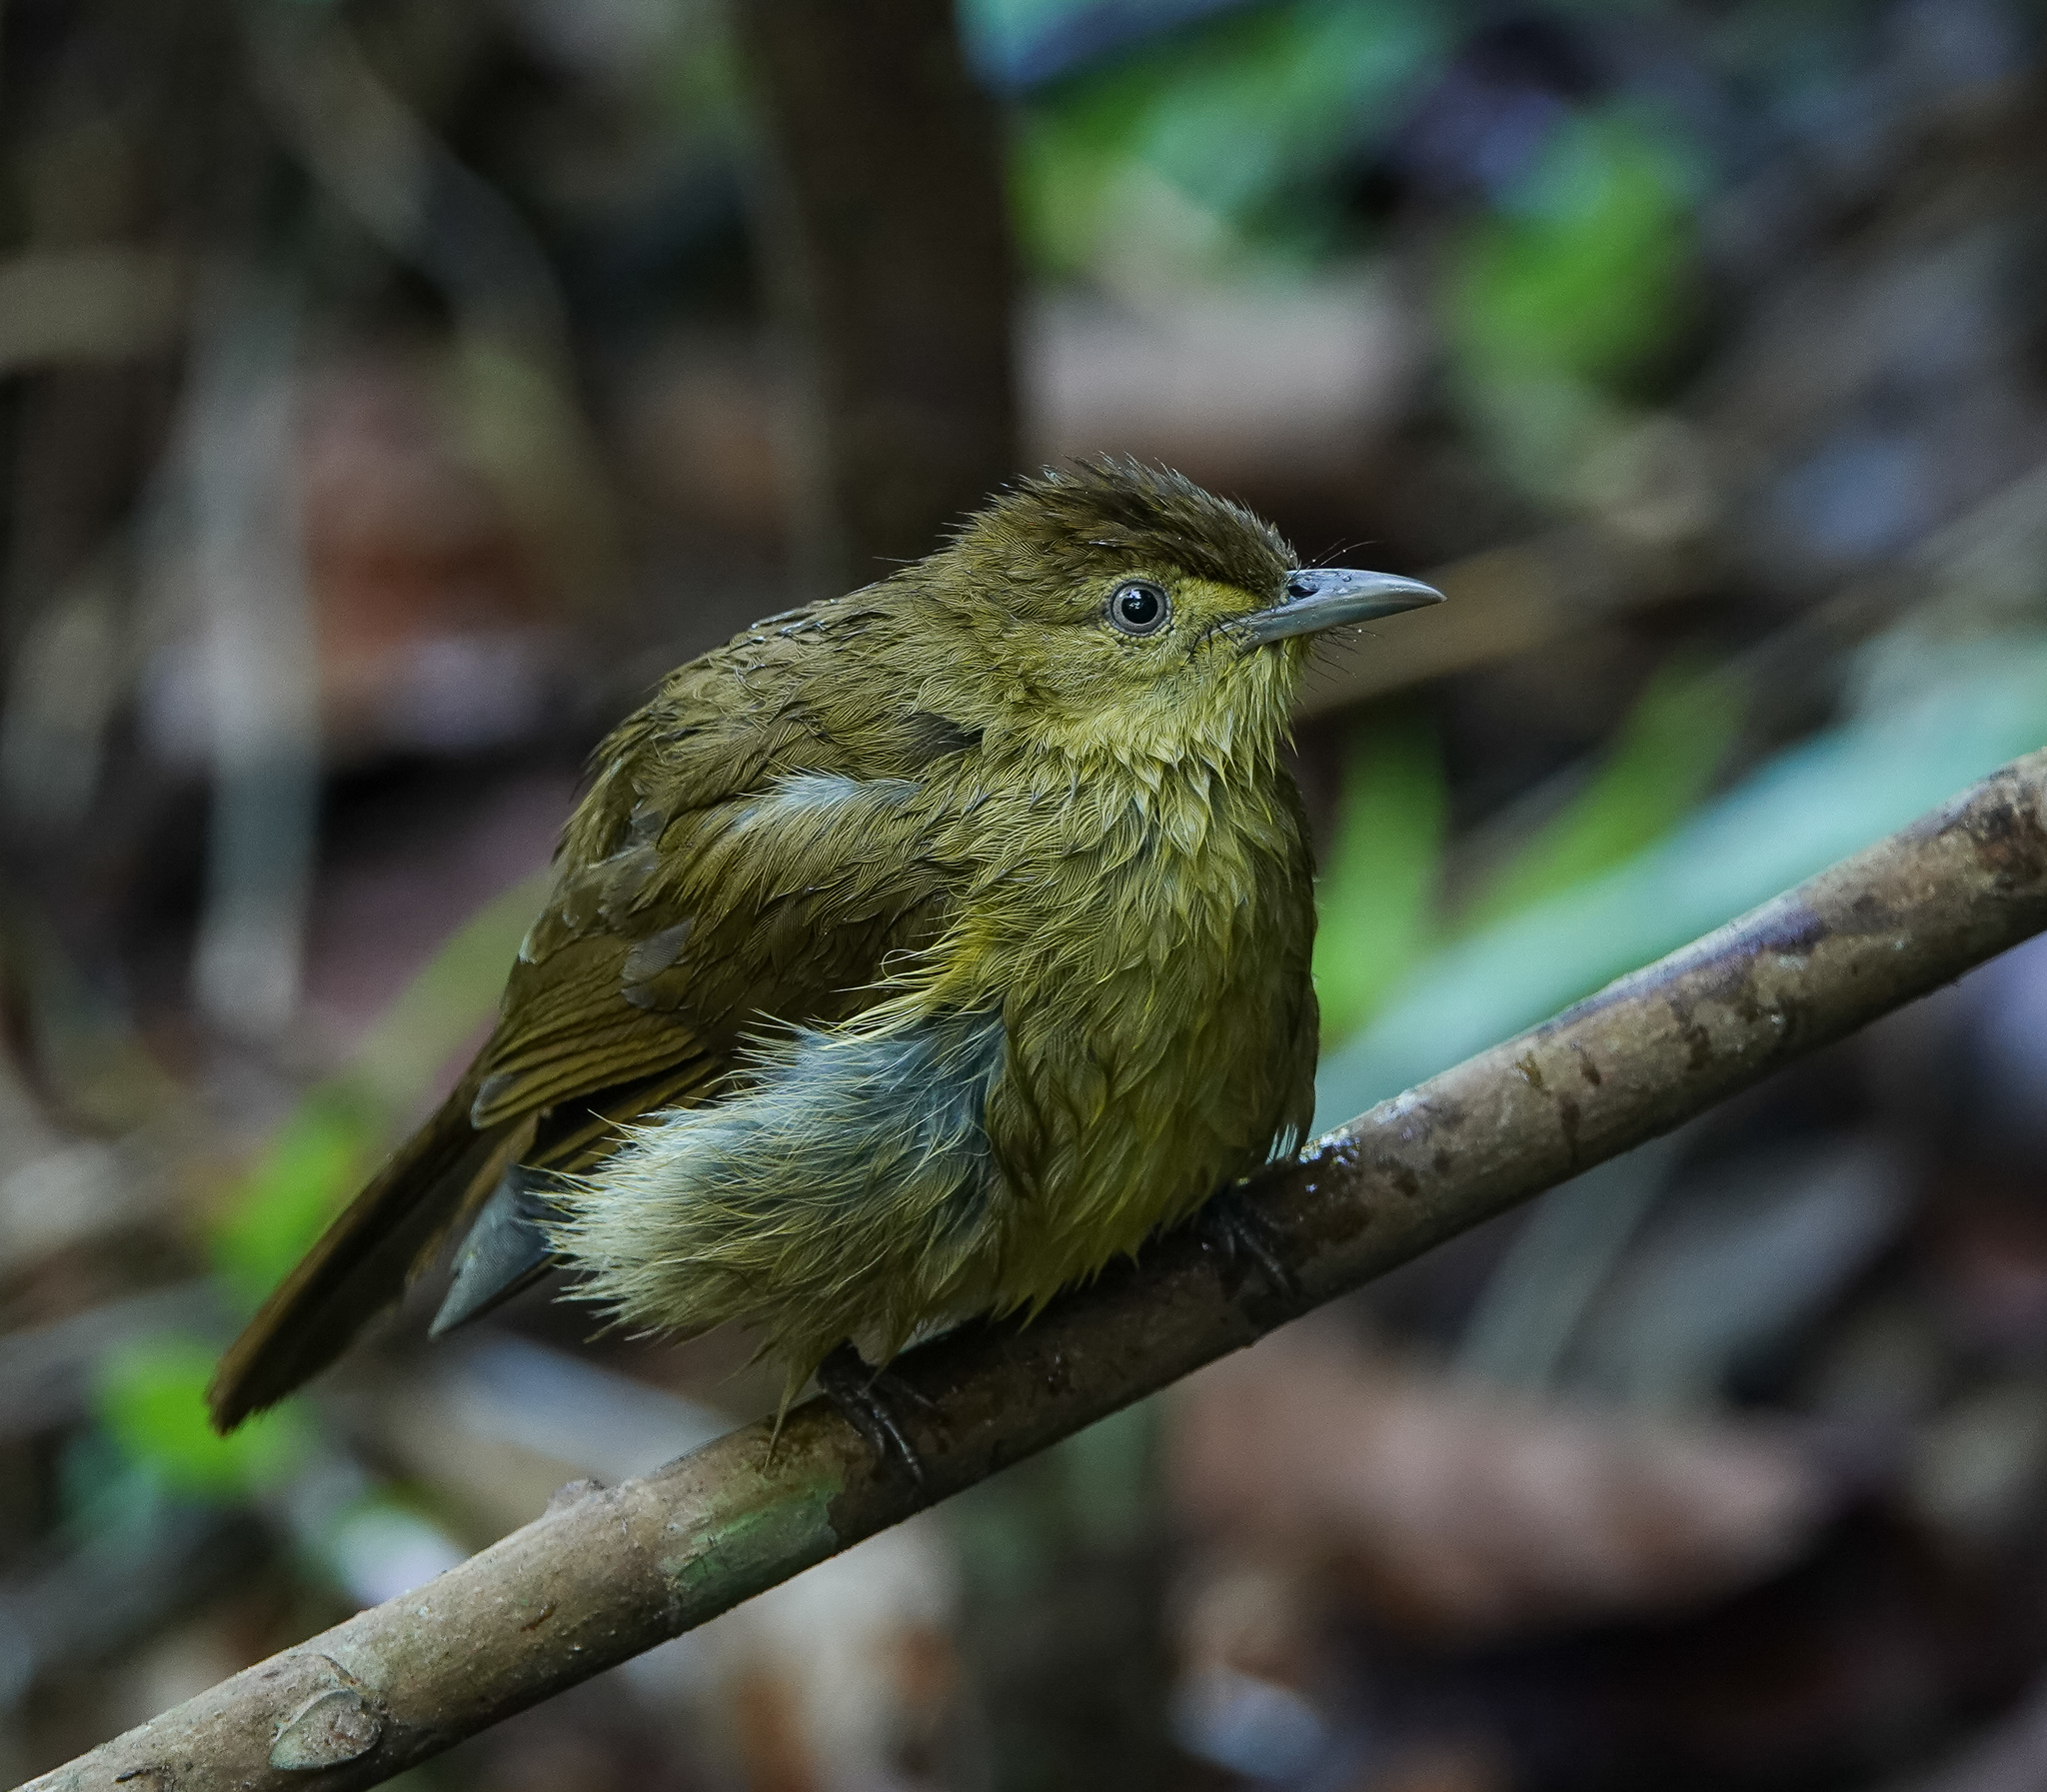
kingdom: Animalia
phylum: Chordata
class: Aves
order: Passeriformes
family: Pycnonotidae
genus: Iole
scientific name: Iole virescens
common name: Olive bulbul
